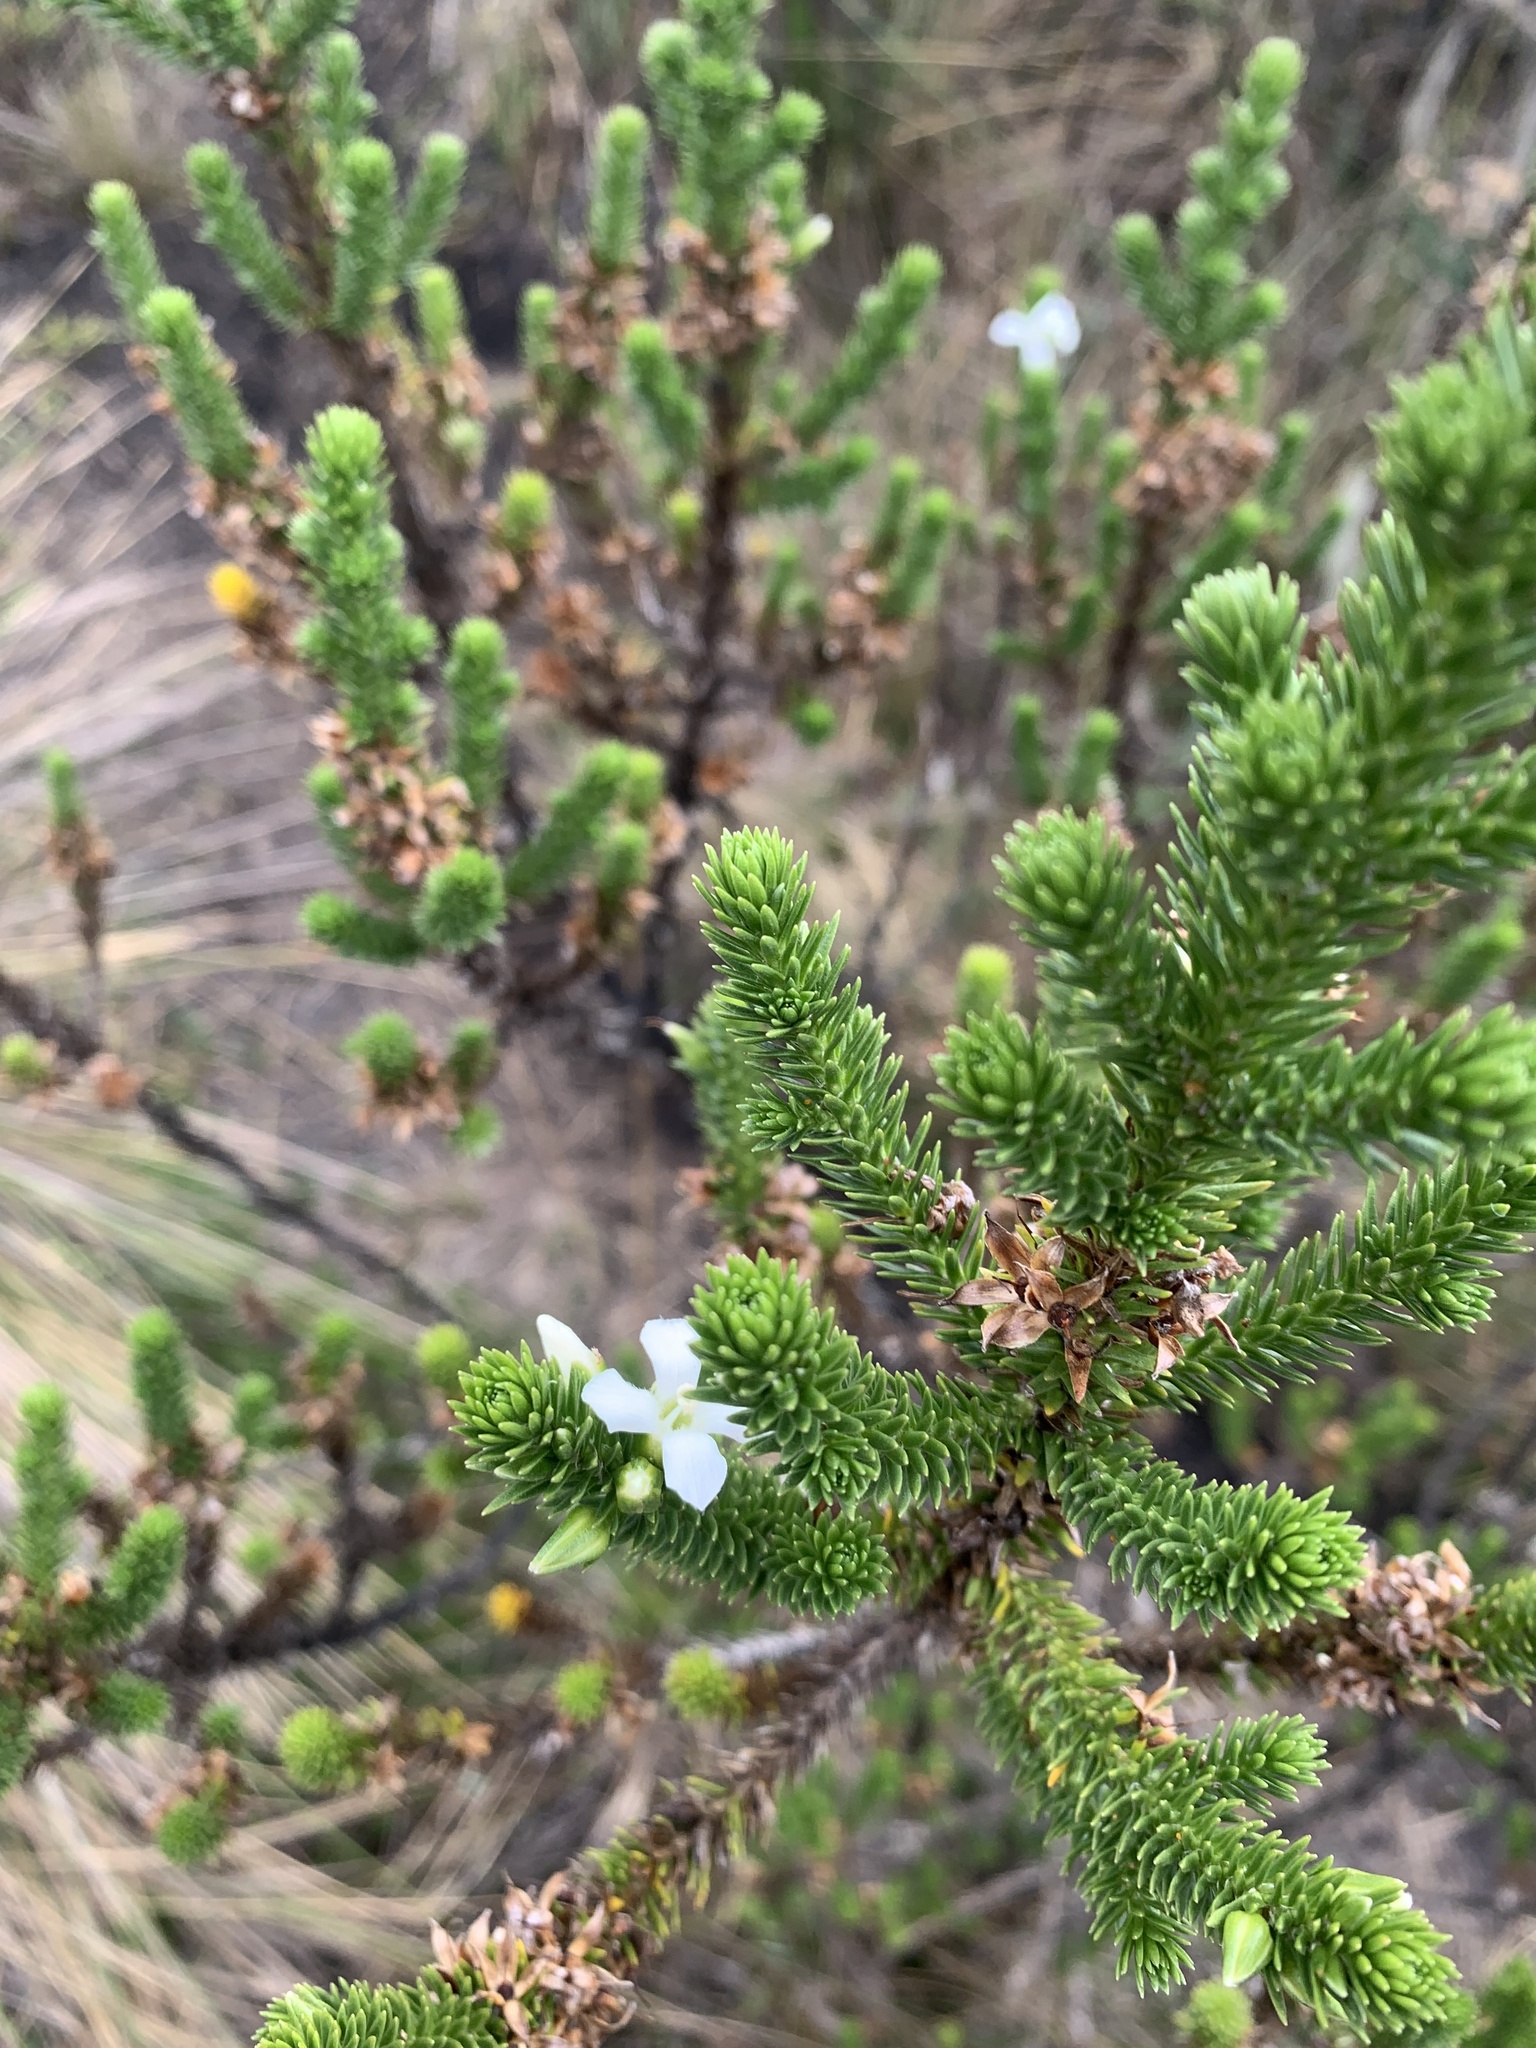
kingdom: Plantae
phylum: Tracheophyta
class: Magnoliopsida
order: Lamiales
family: Plantaginaceae
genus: Aragoa
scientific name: Aragoa abietina
